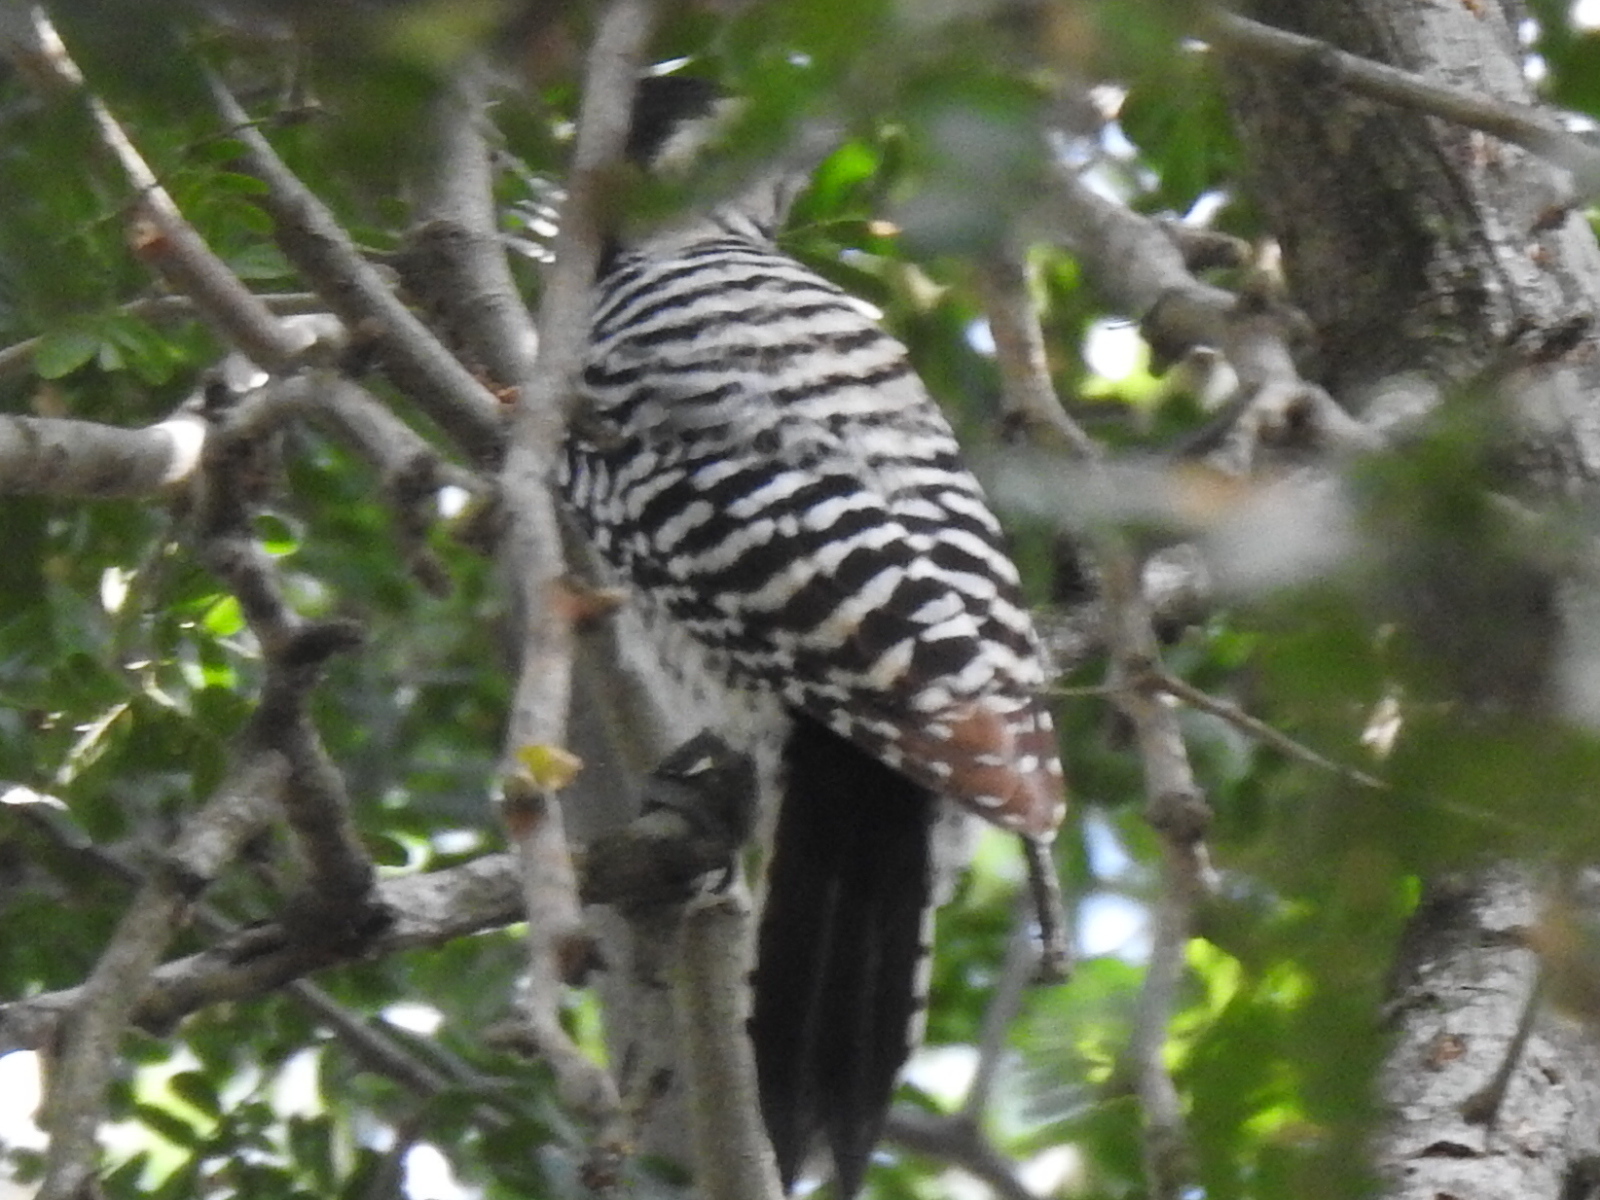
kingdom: Animalia
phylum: Chordata
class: Aves
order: Piciformes
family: Picidae
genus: Dryobates
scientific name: Dryobates scalaris
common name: Ladder-backed woodpecker
